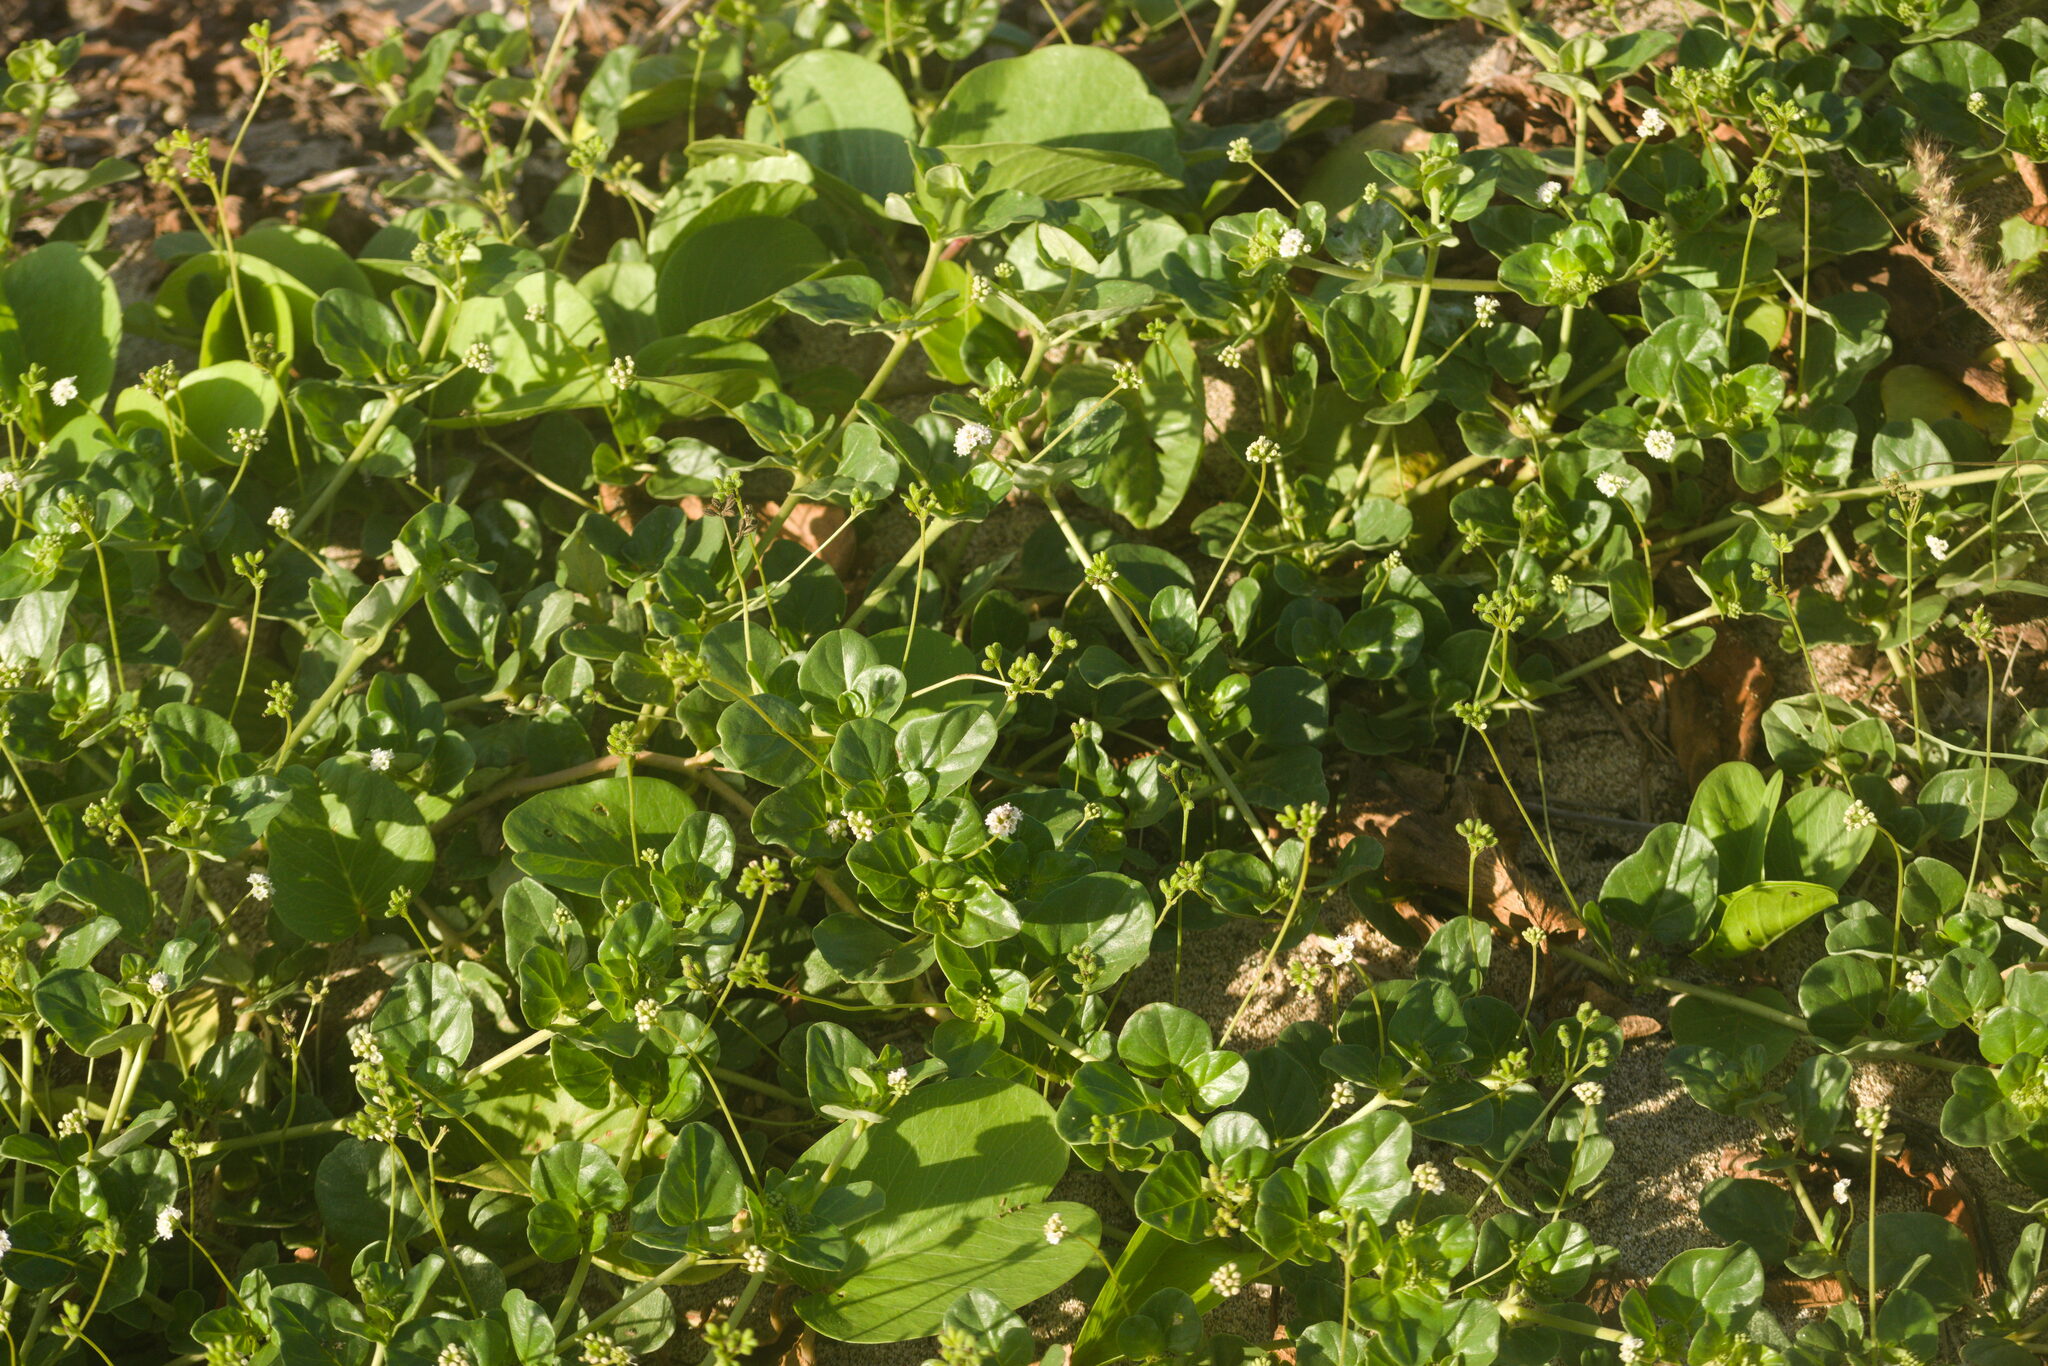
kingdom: Plantae
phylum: Tracheophyta
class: Magnoliopsida
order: Caryophyllales
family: Nyctaginaceae
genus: Boerhavia
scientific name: Boerhavia repens
